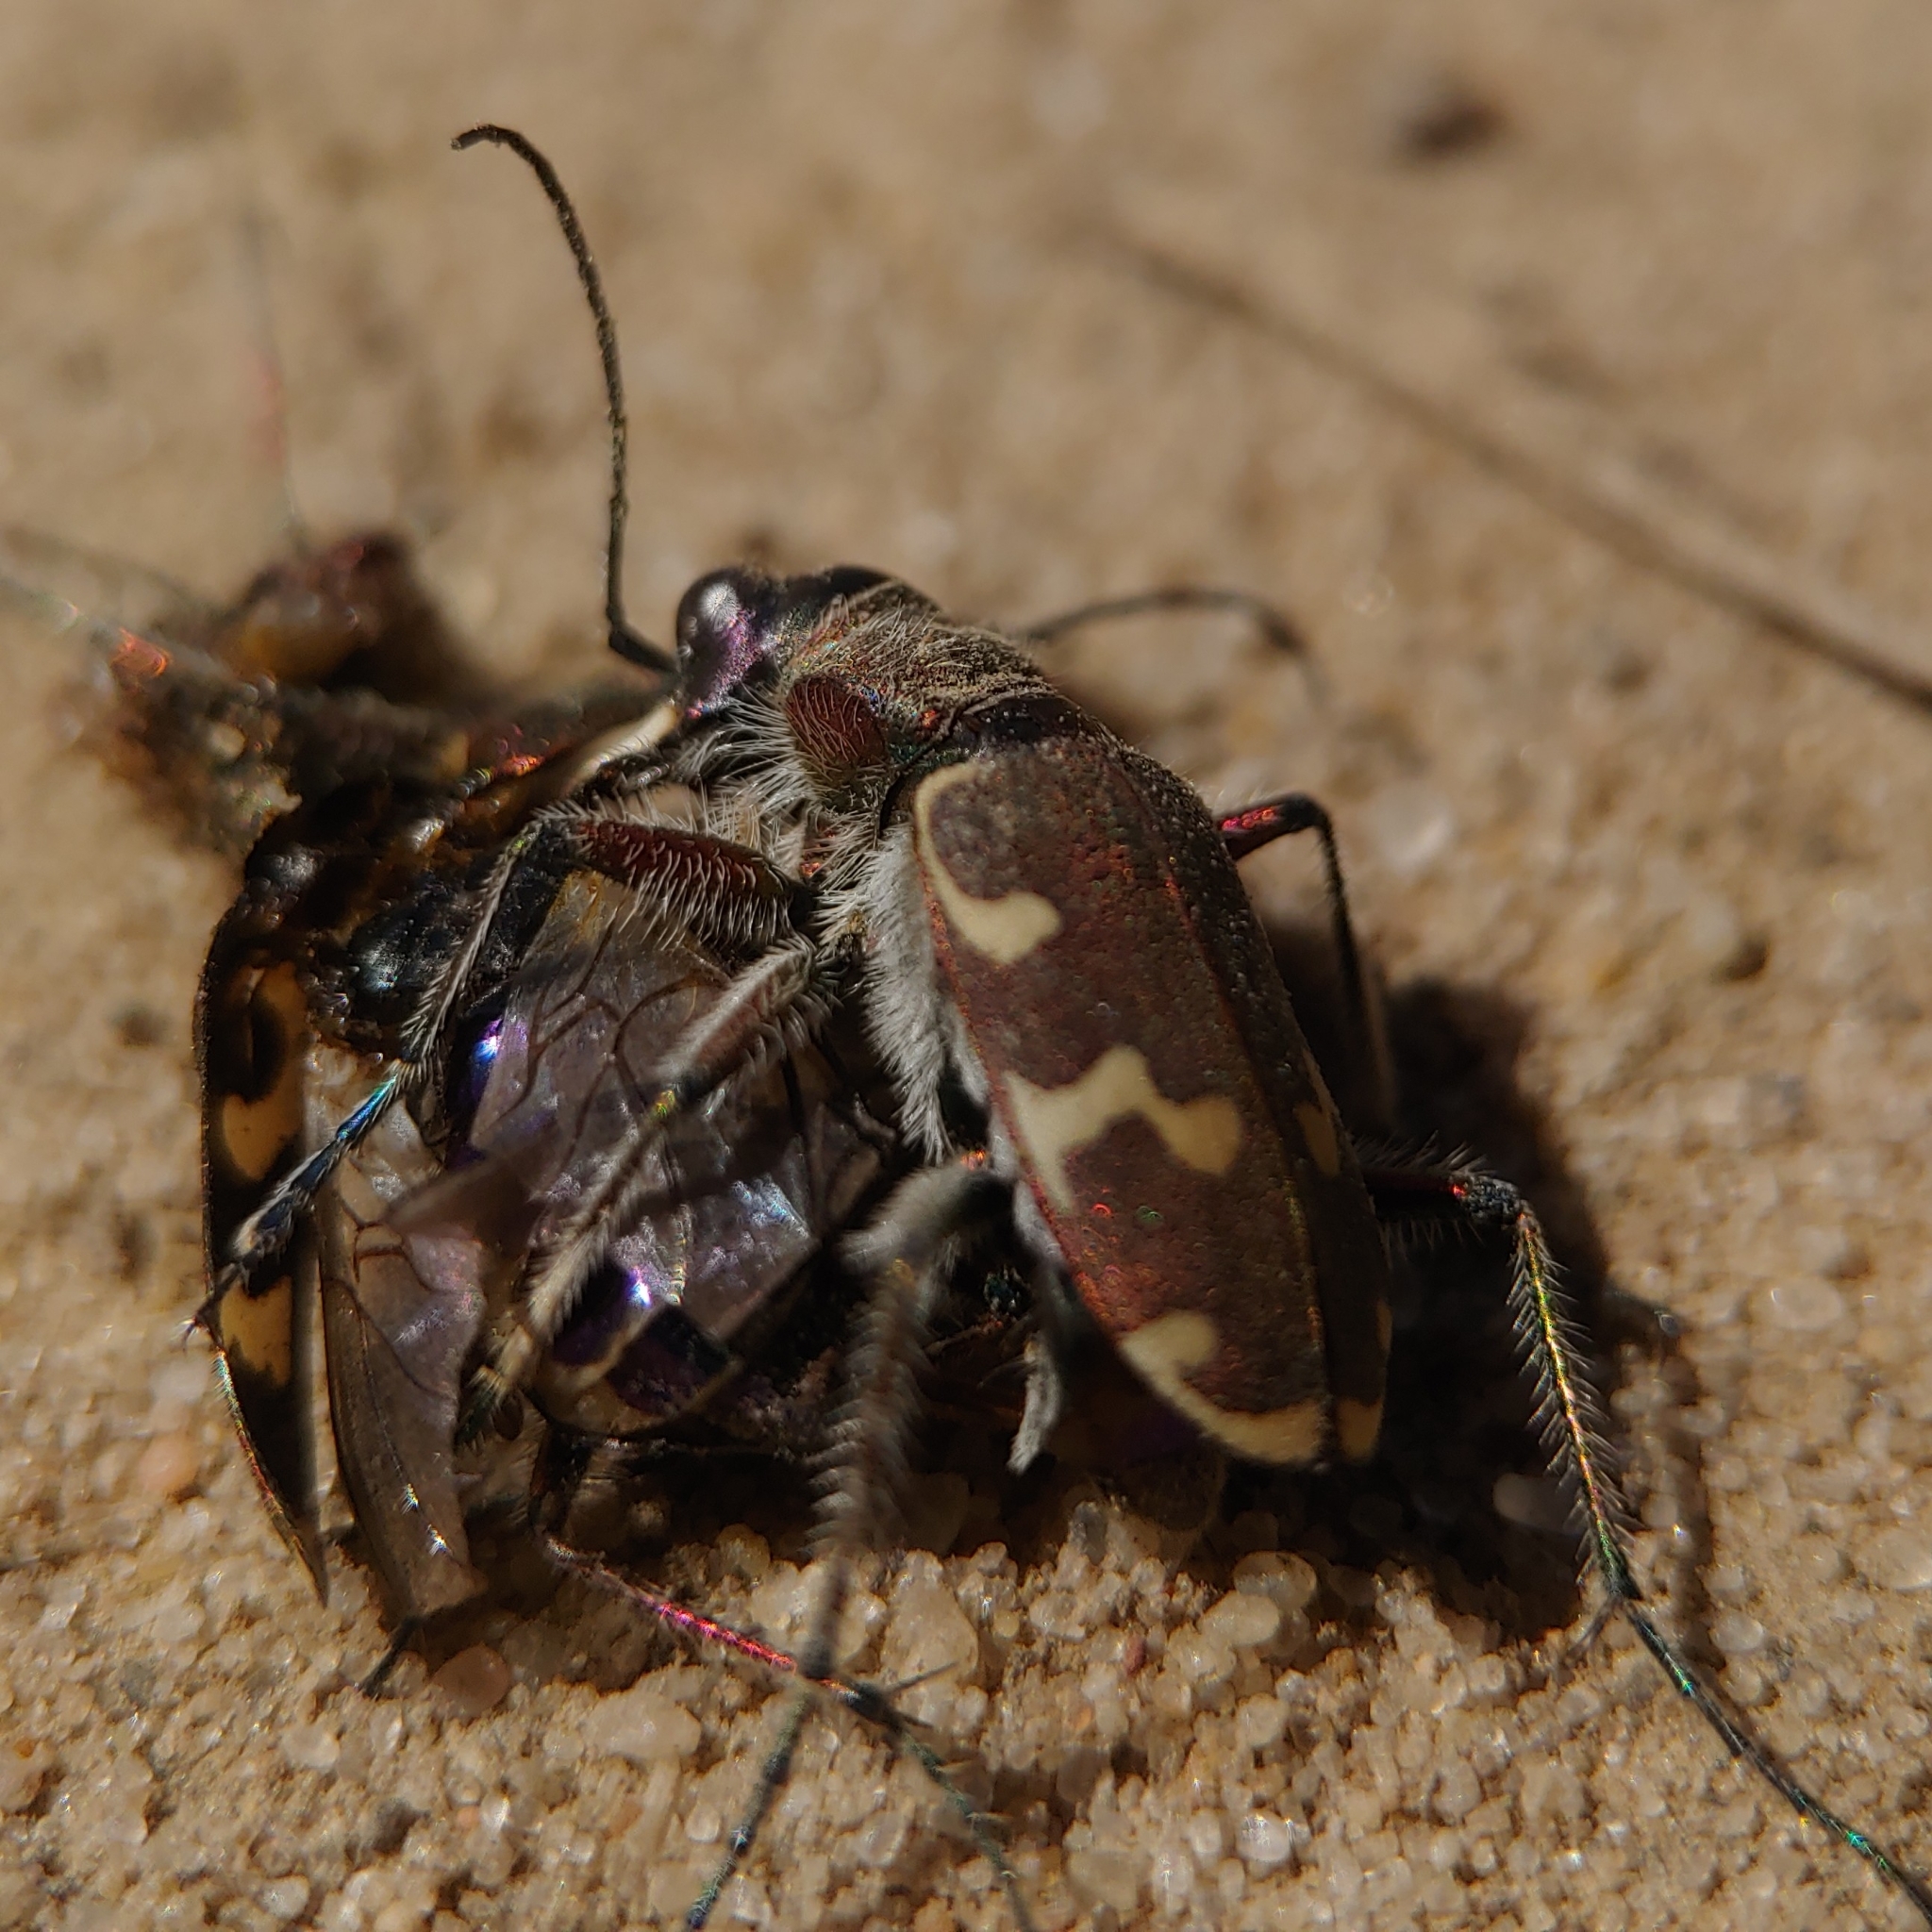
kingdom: Animalia
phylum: Arthropoda
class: Insecta
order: Coleoptera
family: Carabidae
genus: Cicindela
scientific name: Cicindela hybrida
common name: Northern dune tiger beetle
